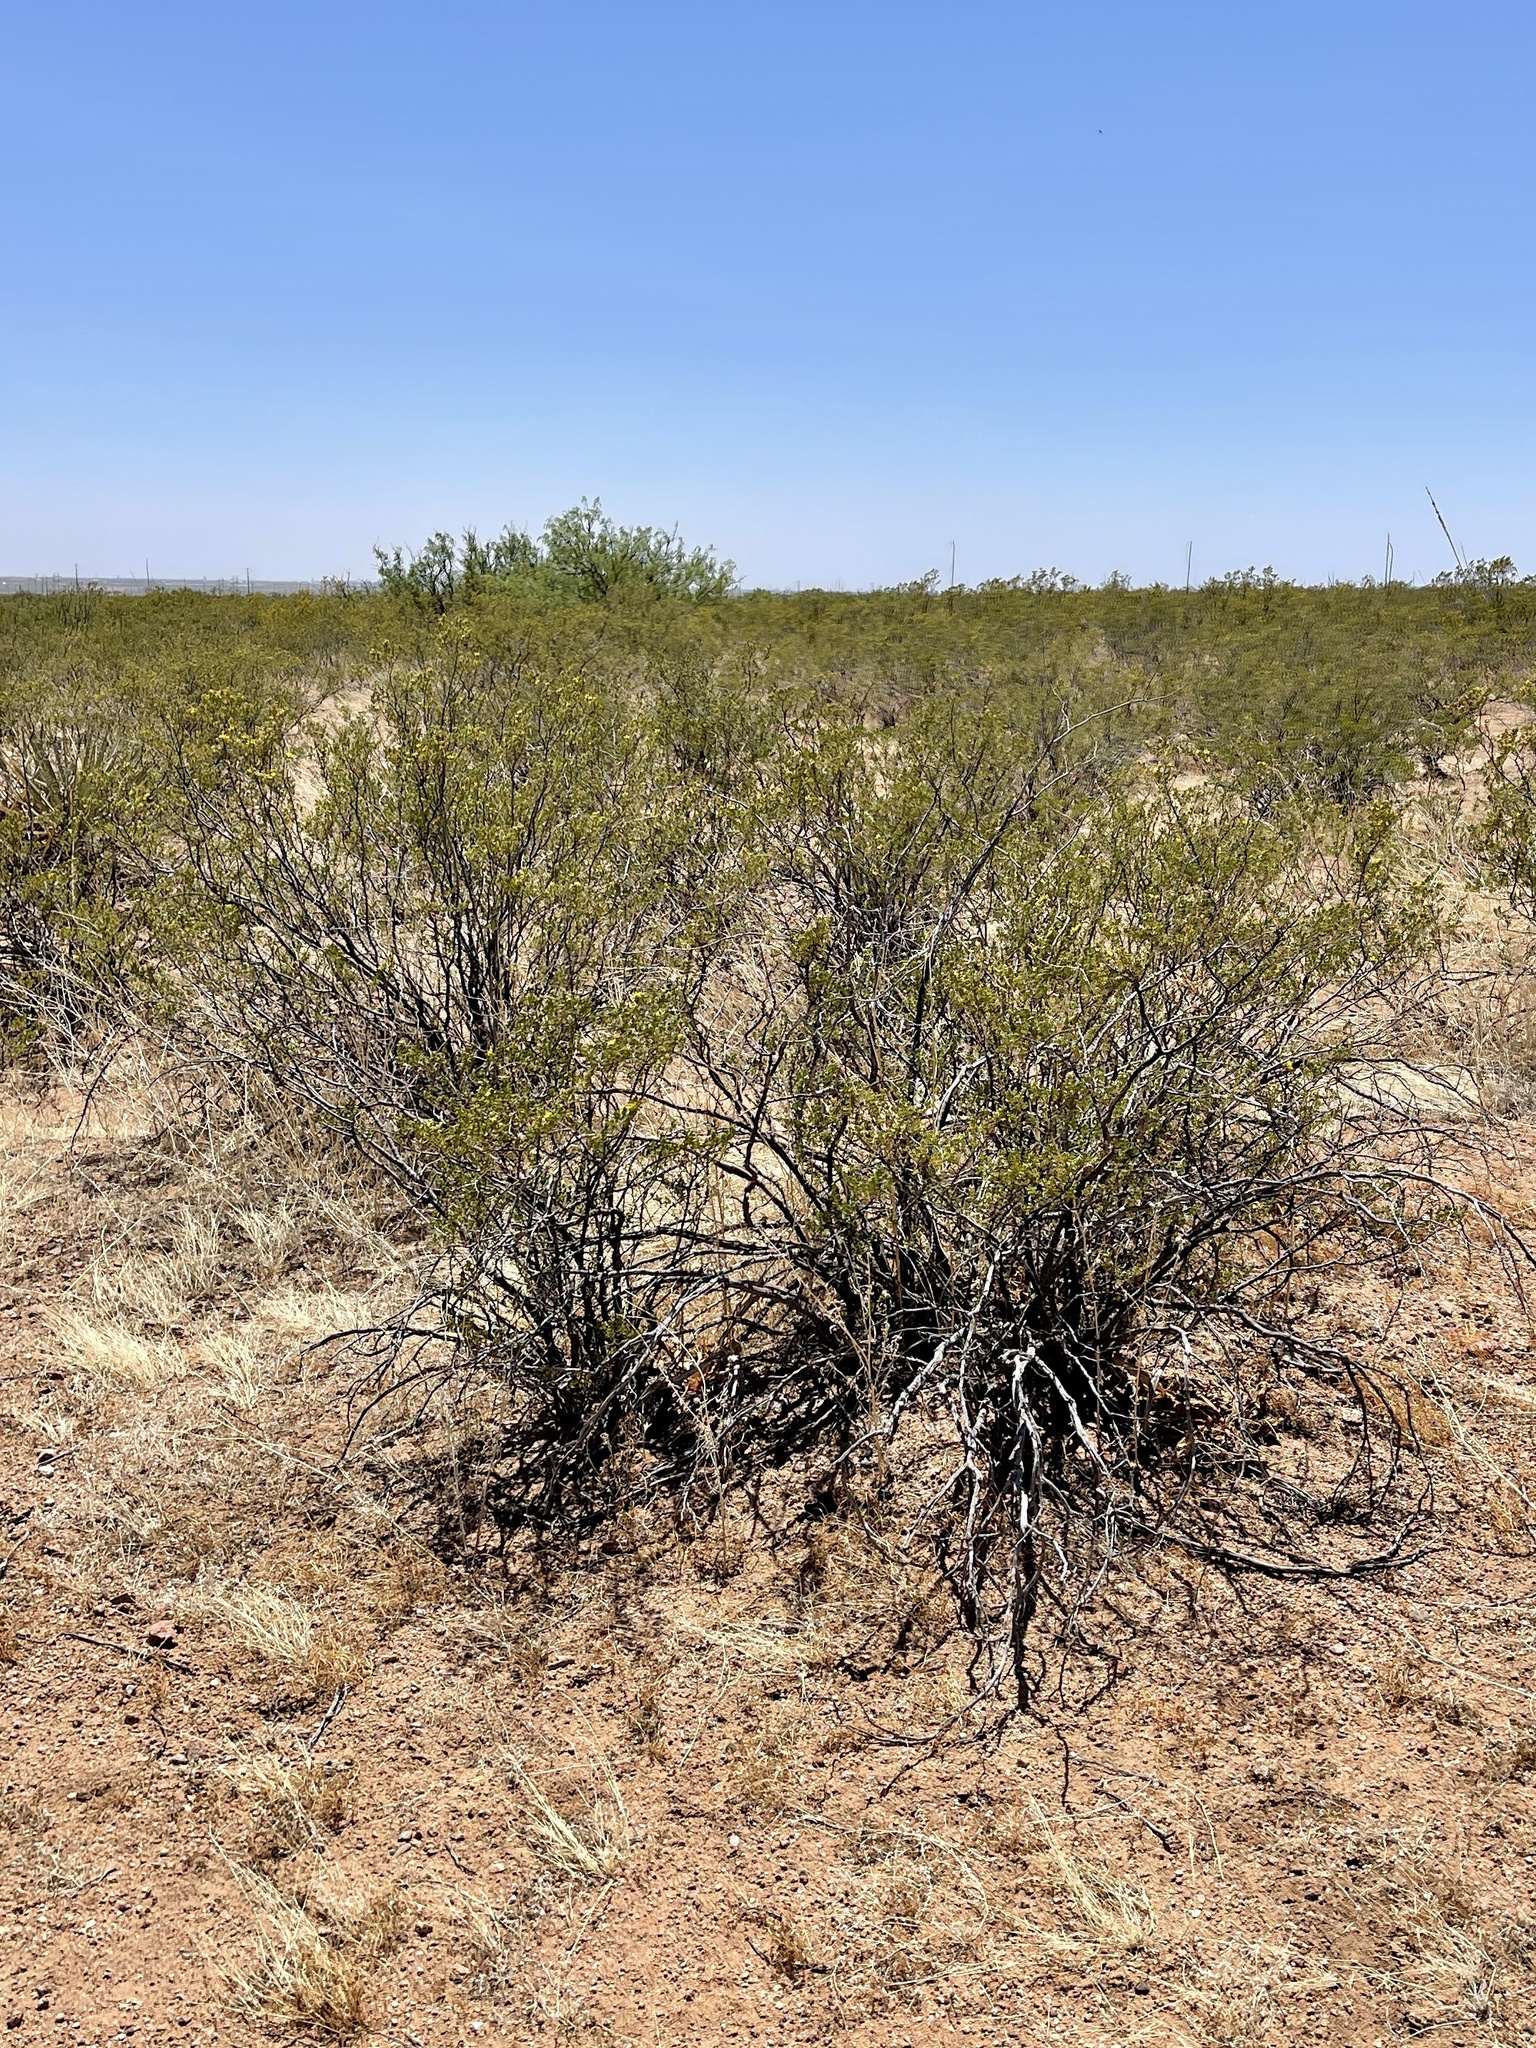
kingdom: Plantae
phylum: Tracheophyta
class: Magnoliopsida
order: Zygophyllales
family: Zygophyllaceae
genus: Larrea
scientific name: Larrea tridentata
